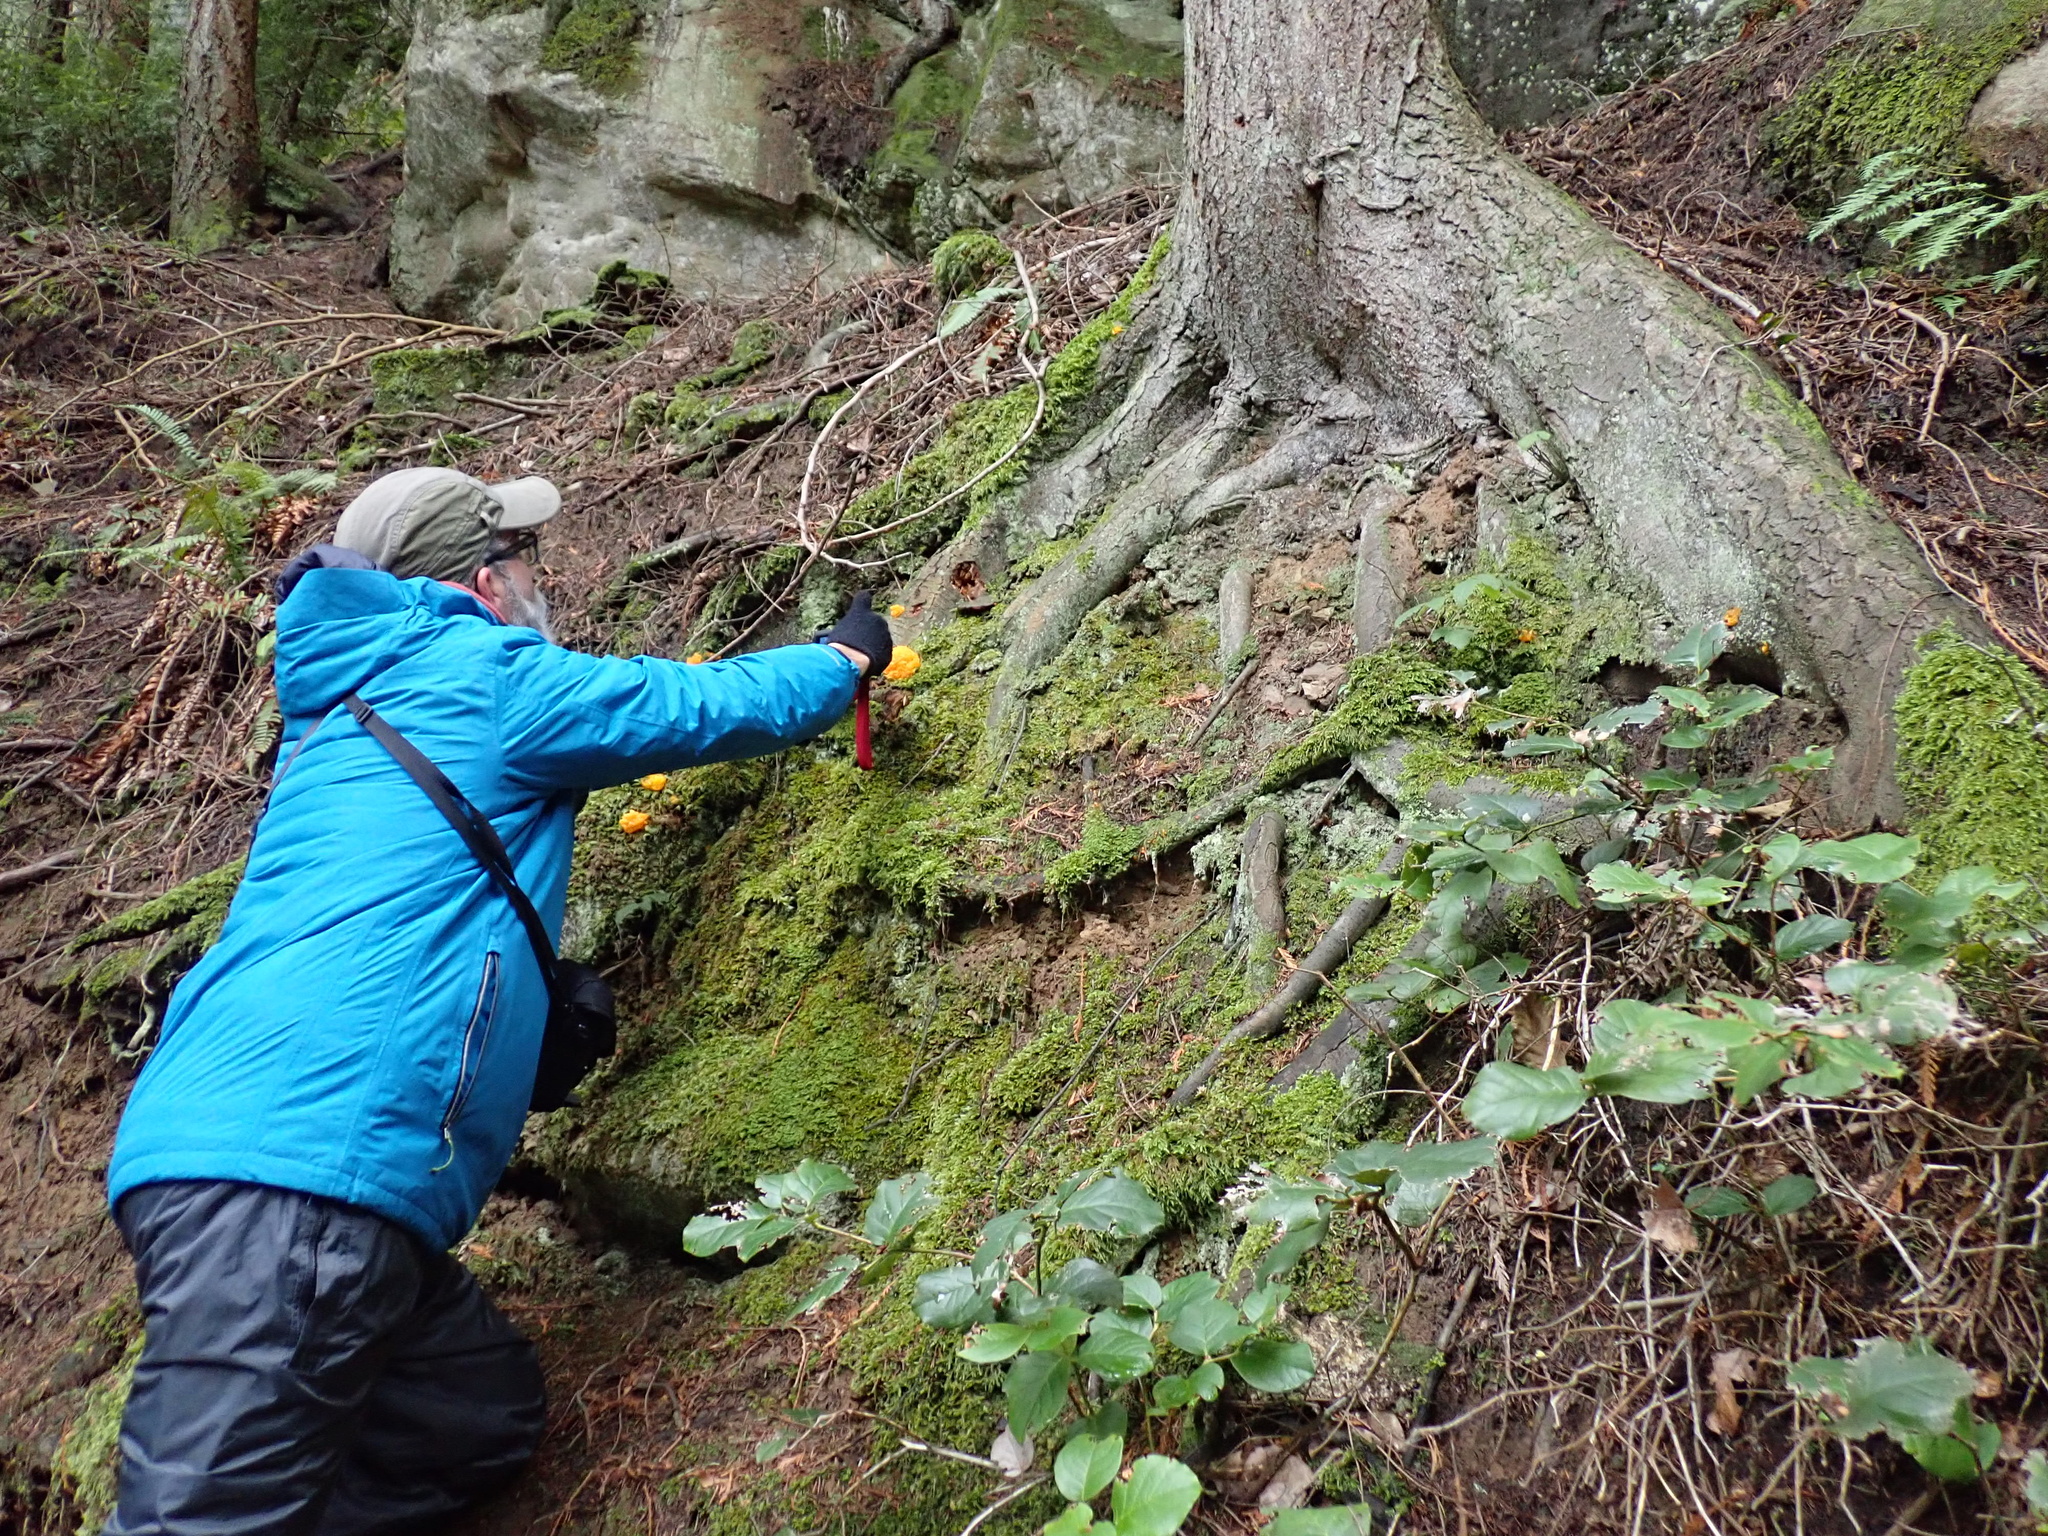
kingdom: Fungi
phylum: Basidiomycota
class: Tremellomycetes
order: Tremellales
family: Tremellaceae
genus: Tremella
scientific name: Tremella mesenterica
